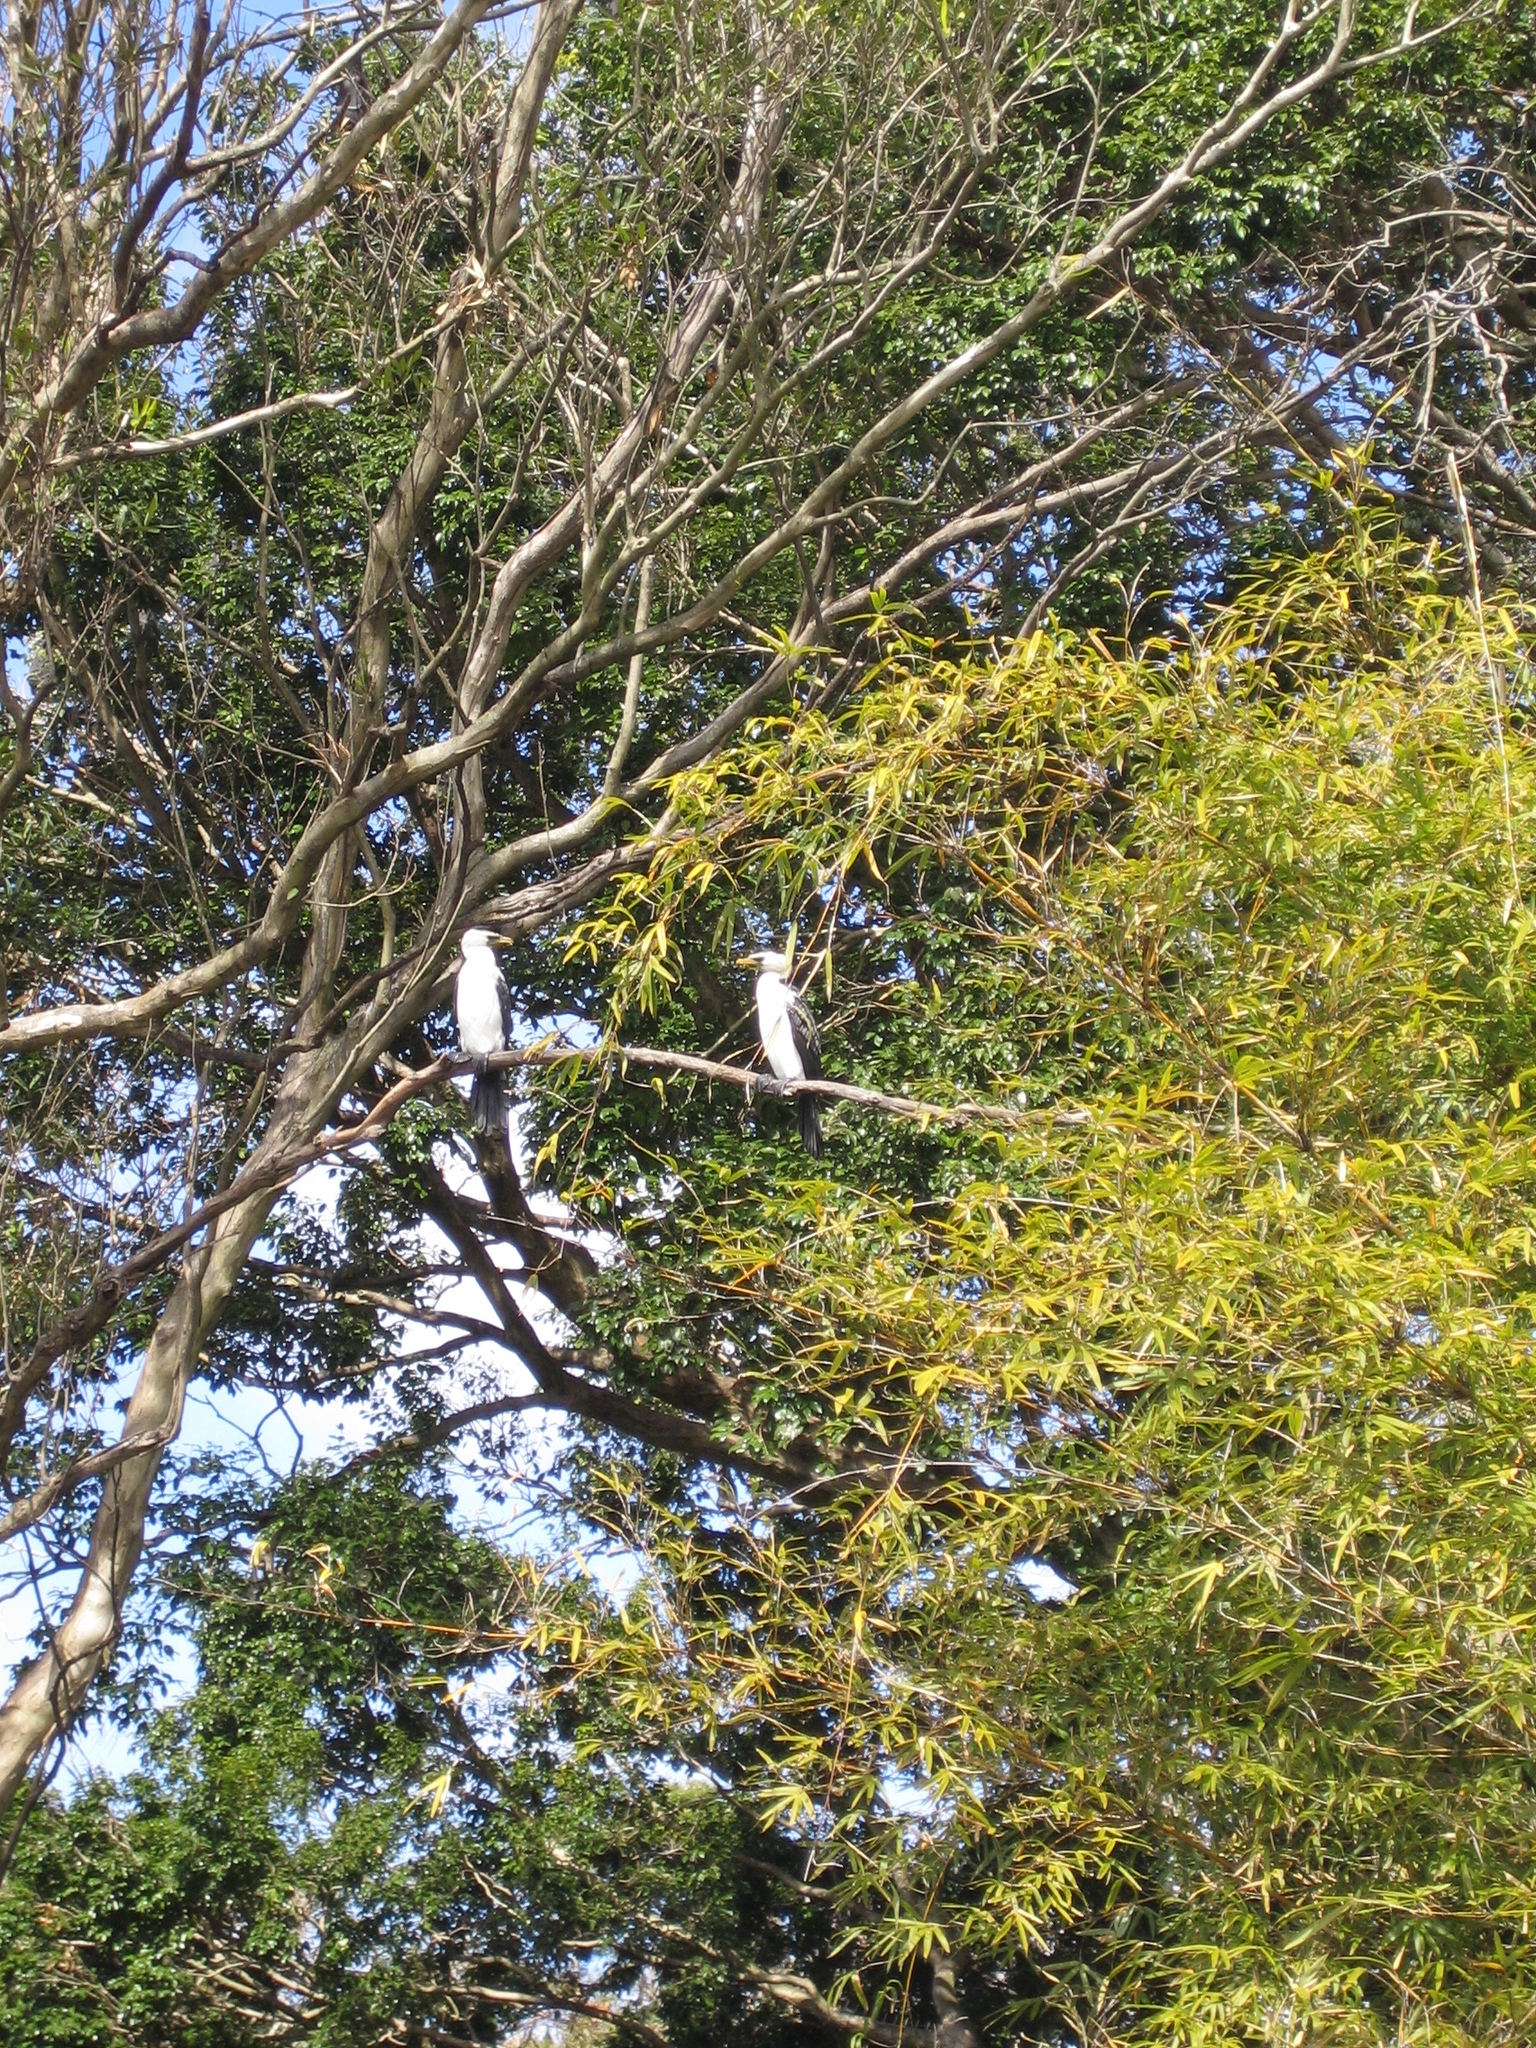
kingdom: Animalia
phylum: Chordata
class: Aves
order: Suliformes
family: Phalacrocoracidae
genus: Microcarbo
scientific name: Microcarbo melanoleucos
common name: Little pied cormorant
